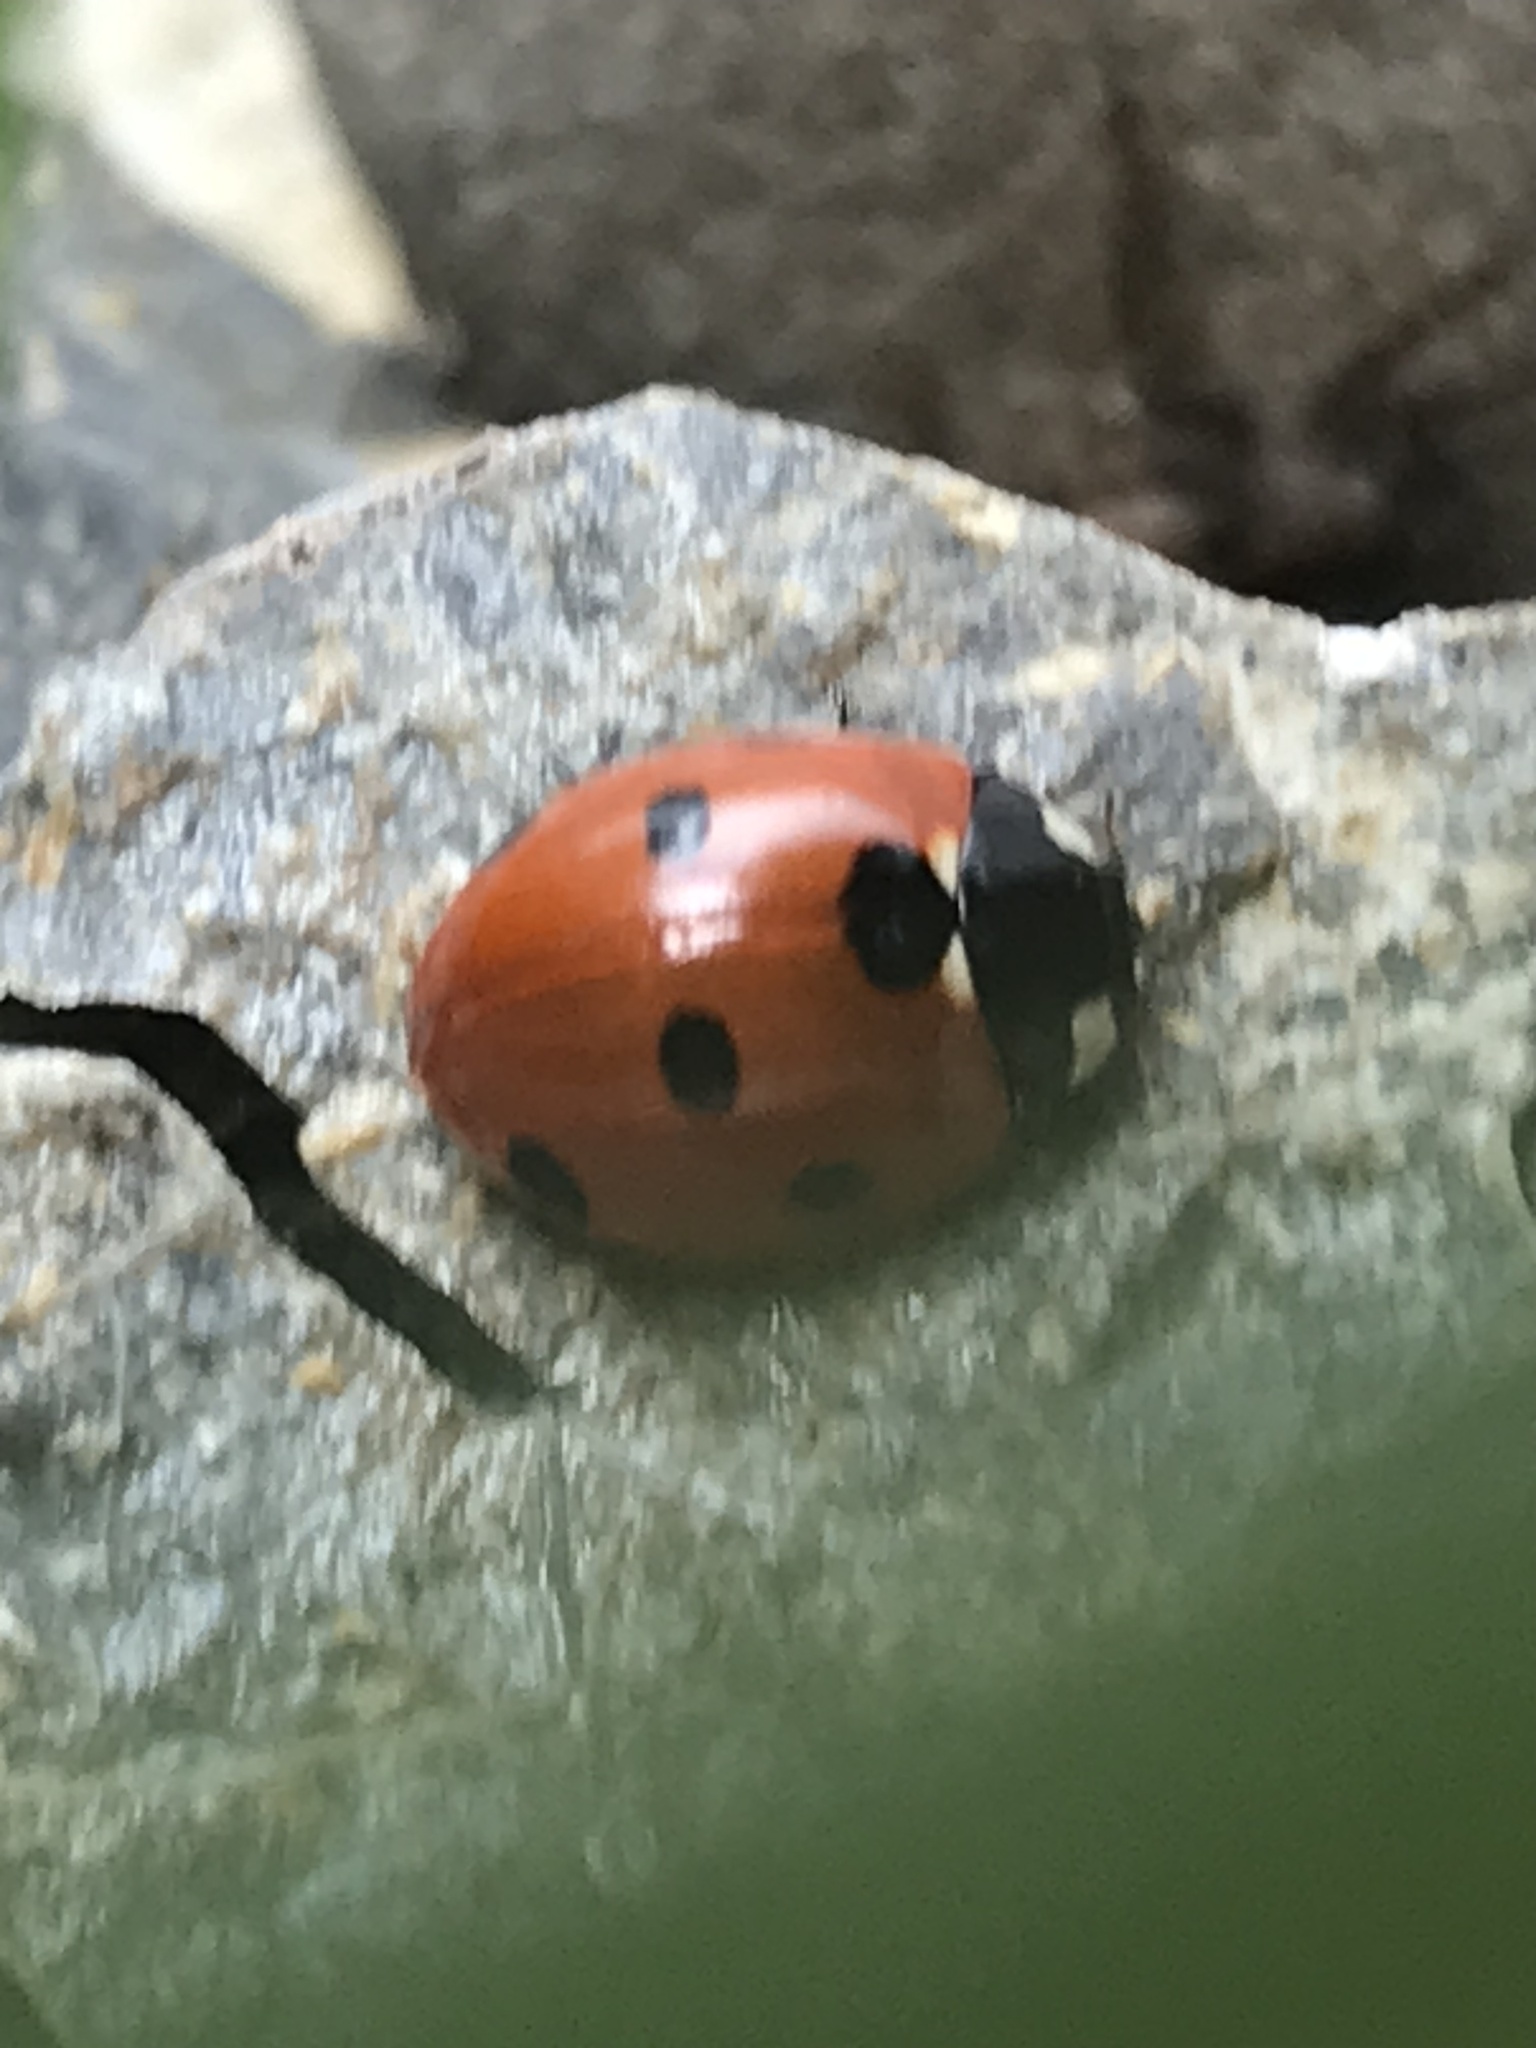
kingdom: Animalia
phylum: Arthropoda
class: Insecta
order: Coleoptera
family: Coccinellidae
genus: Coccinella
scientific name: Coccinella septempunctata
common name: Sevenspotted lady beetle
